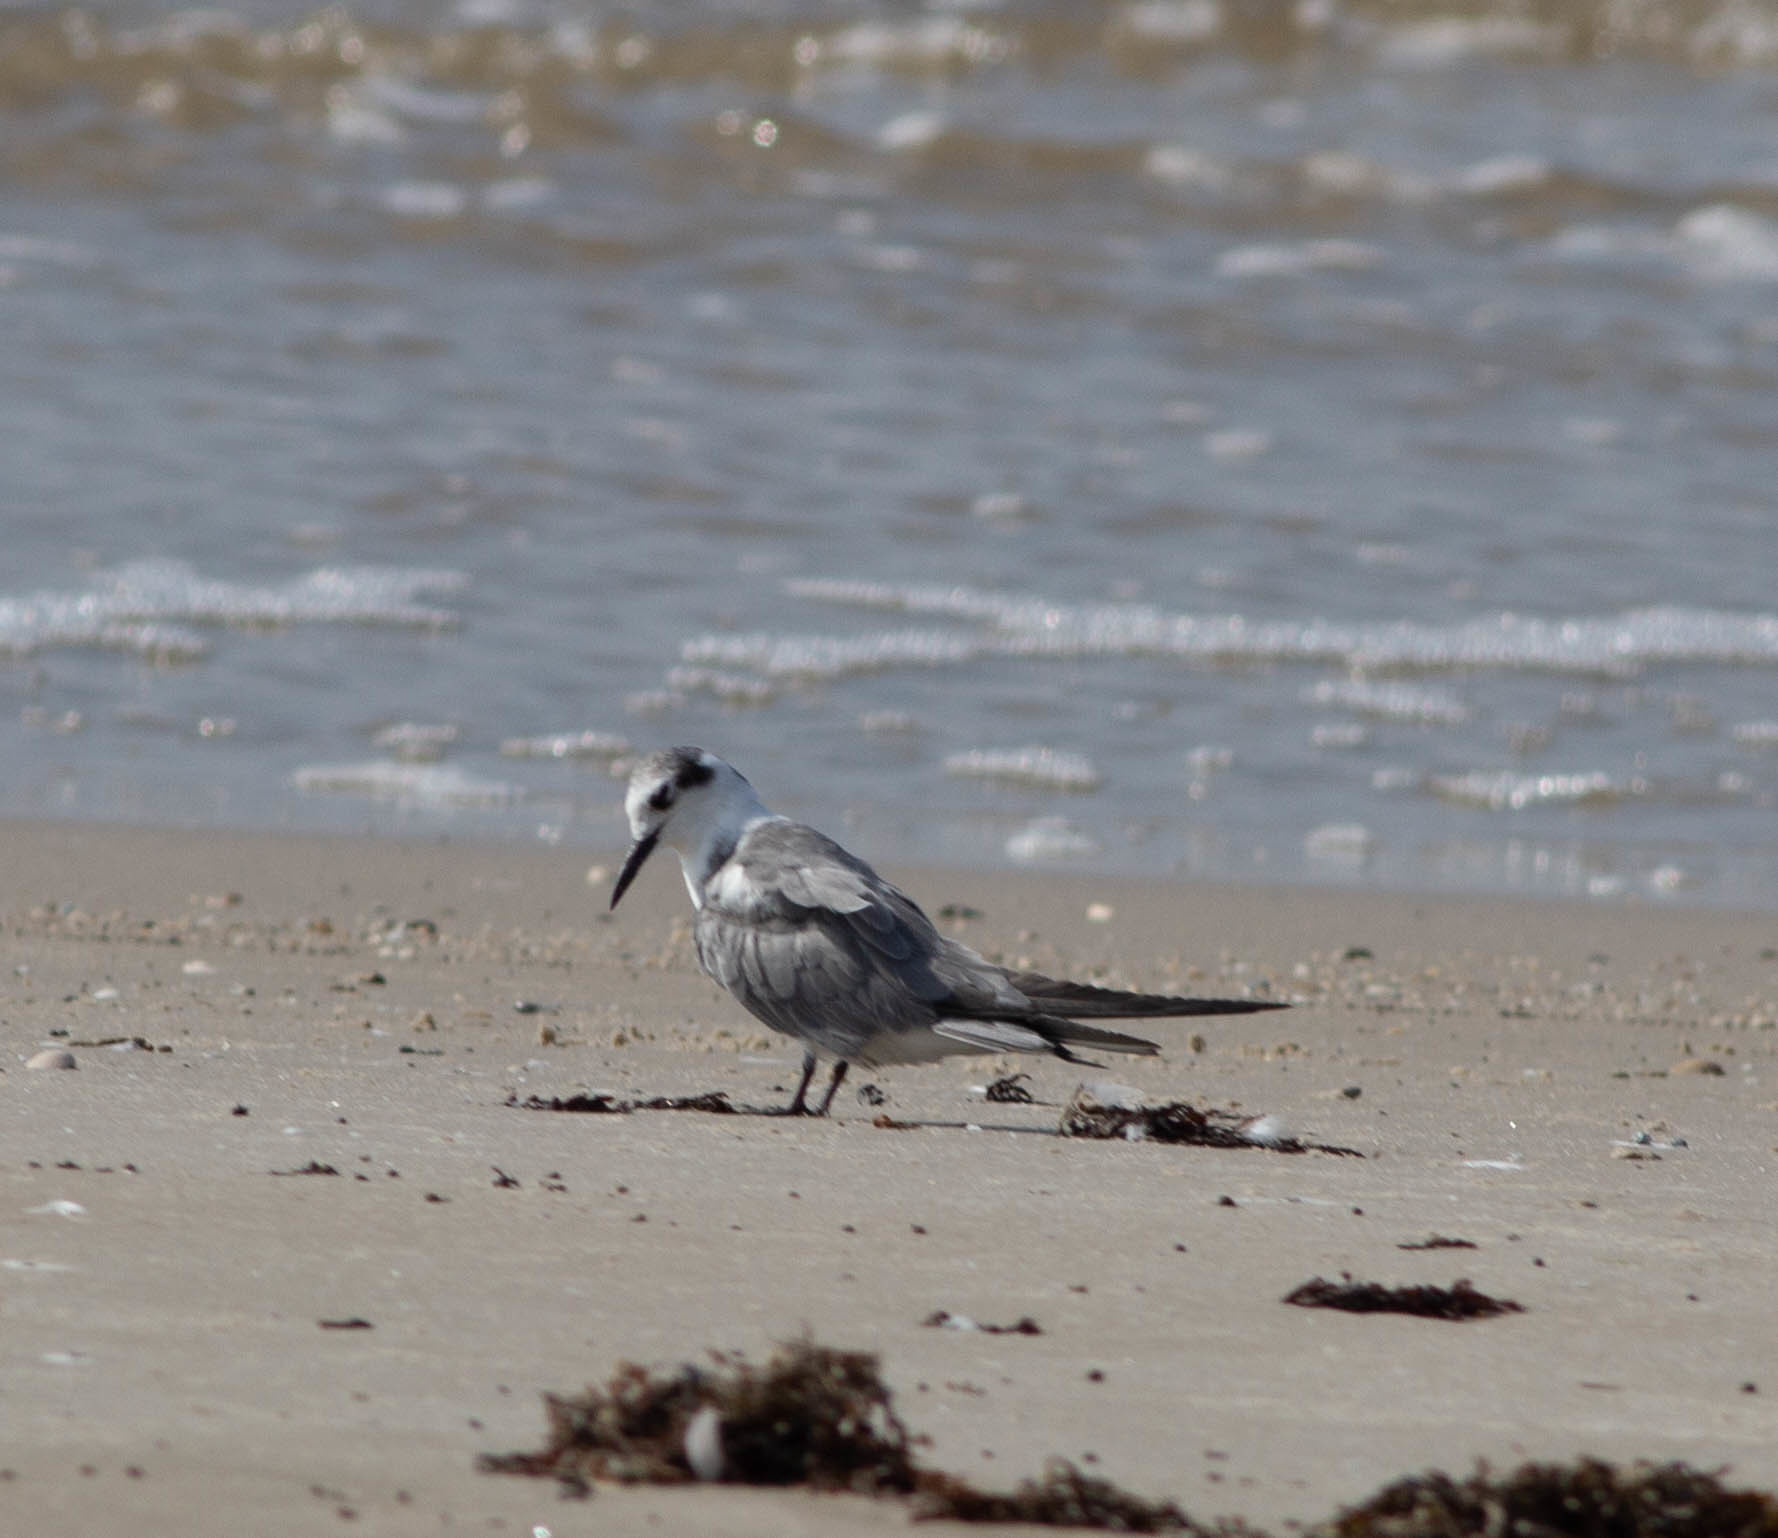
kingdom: Animalia
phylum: Chordata
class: Aves
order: Charadriiformes
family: Laridae
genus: Chlidonias
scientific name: Chlidonias niger
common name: Black tern
